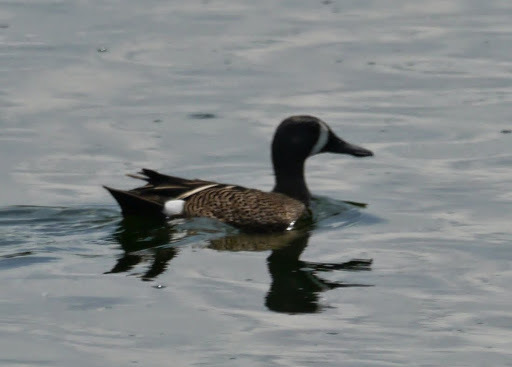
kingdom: Animalia
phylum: Chordata
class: Aves
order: Anseriformes
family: Anatidae
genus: Spatula
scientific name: Spatula discors
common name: Blue-winged teal
